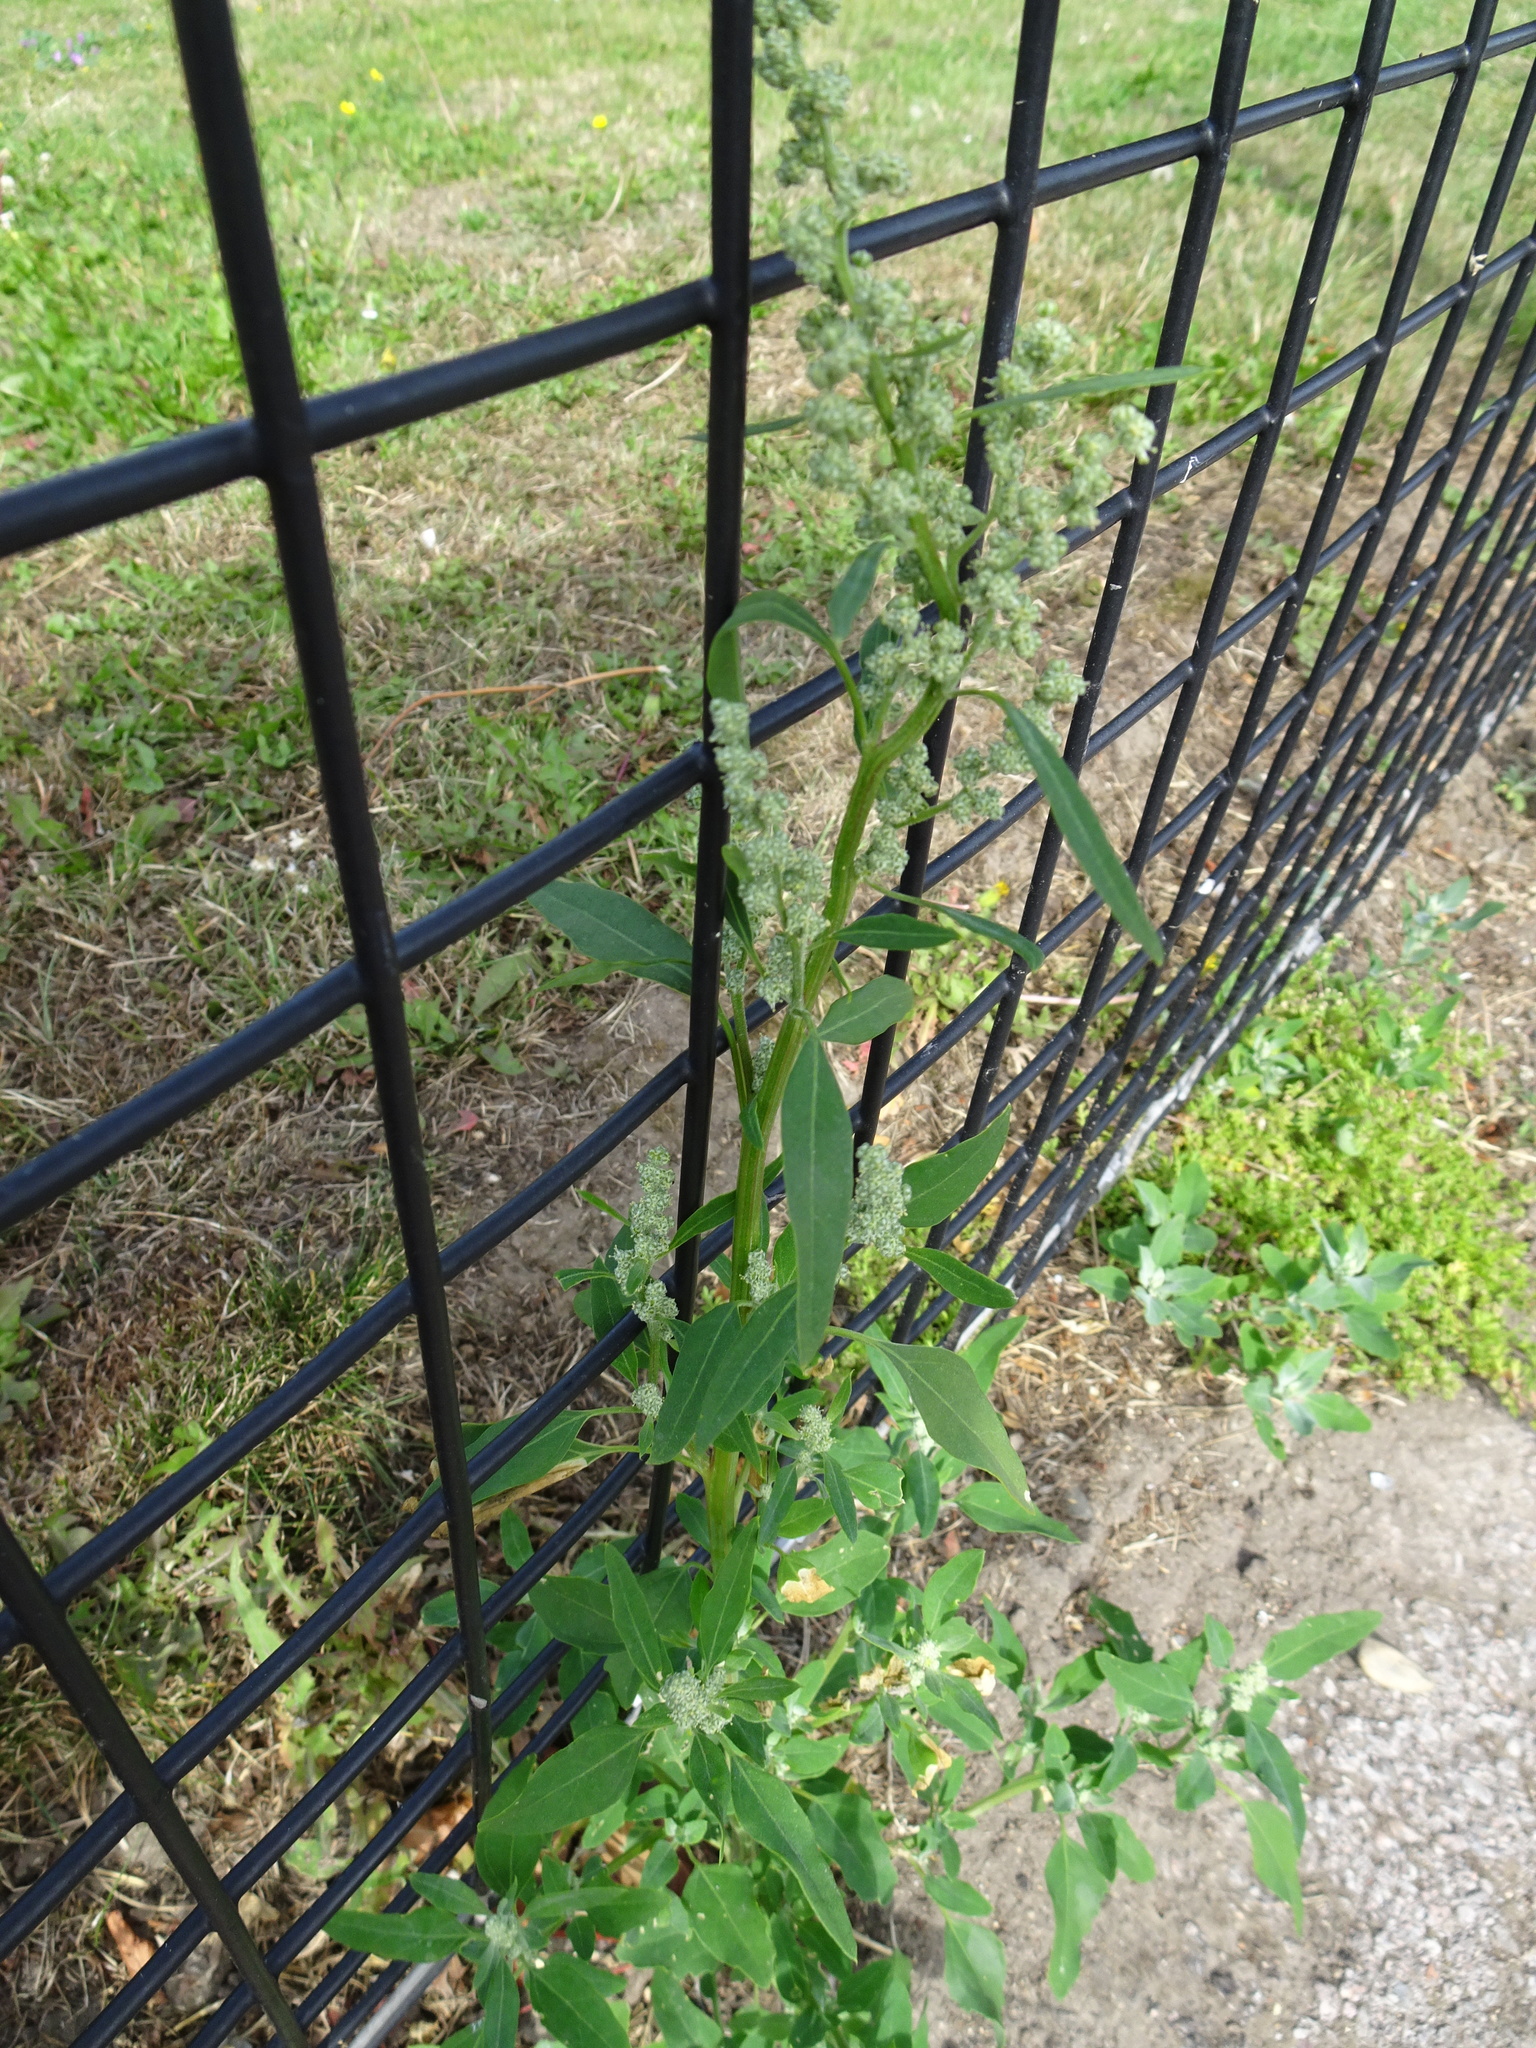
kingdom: Plantae
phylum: Tracheophyta
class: Magnoliopsida
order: Caryophyllales
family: Amaranthaceae
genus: Chenopodium
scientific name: Chenopodium album
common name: Fat-hen
